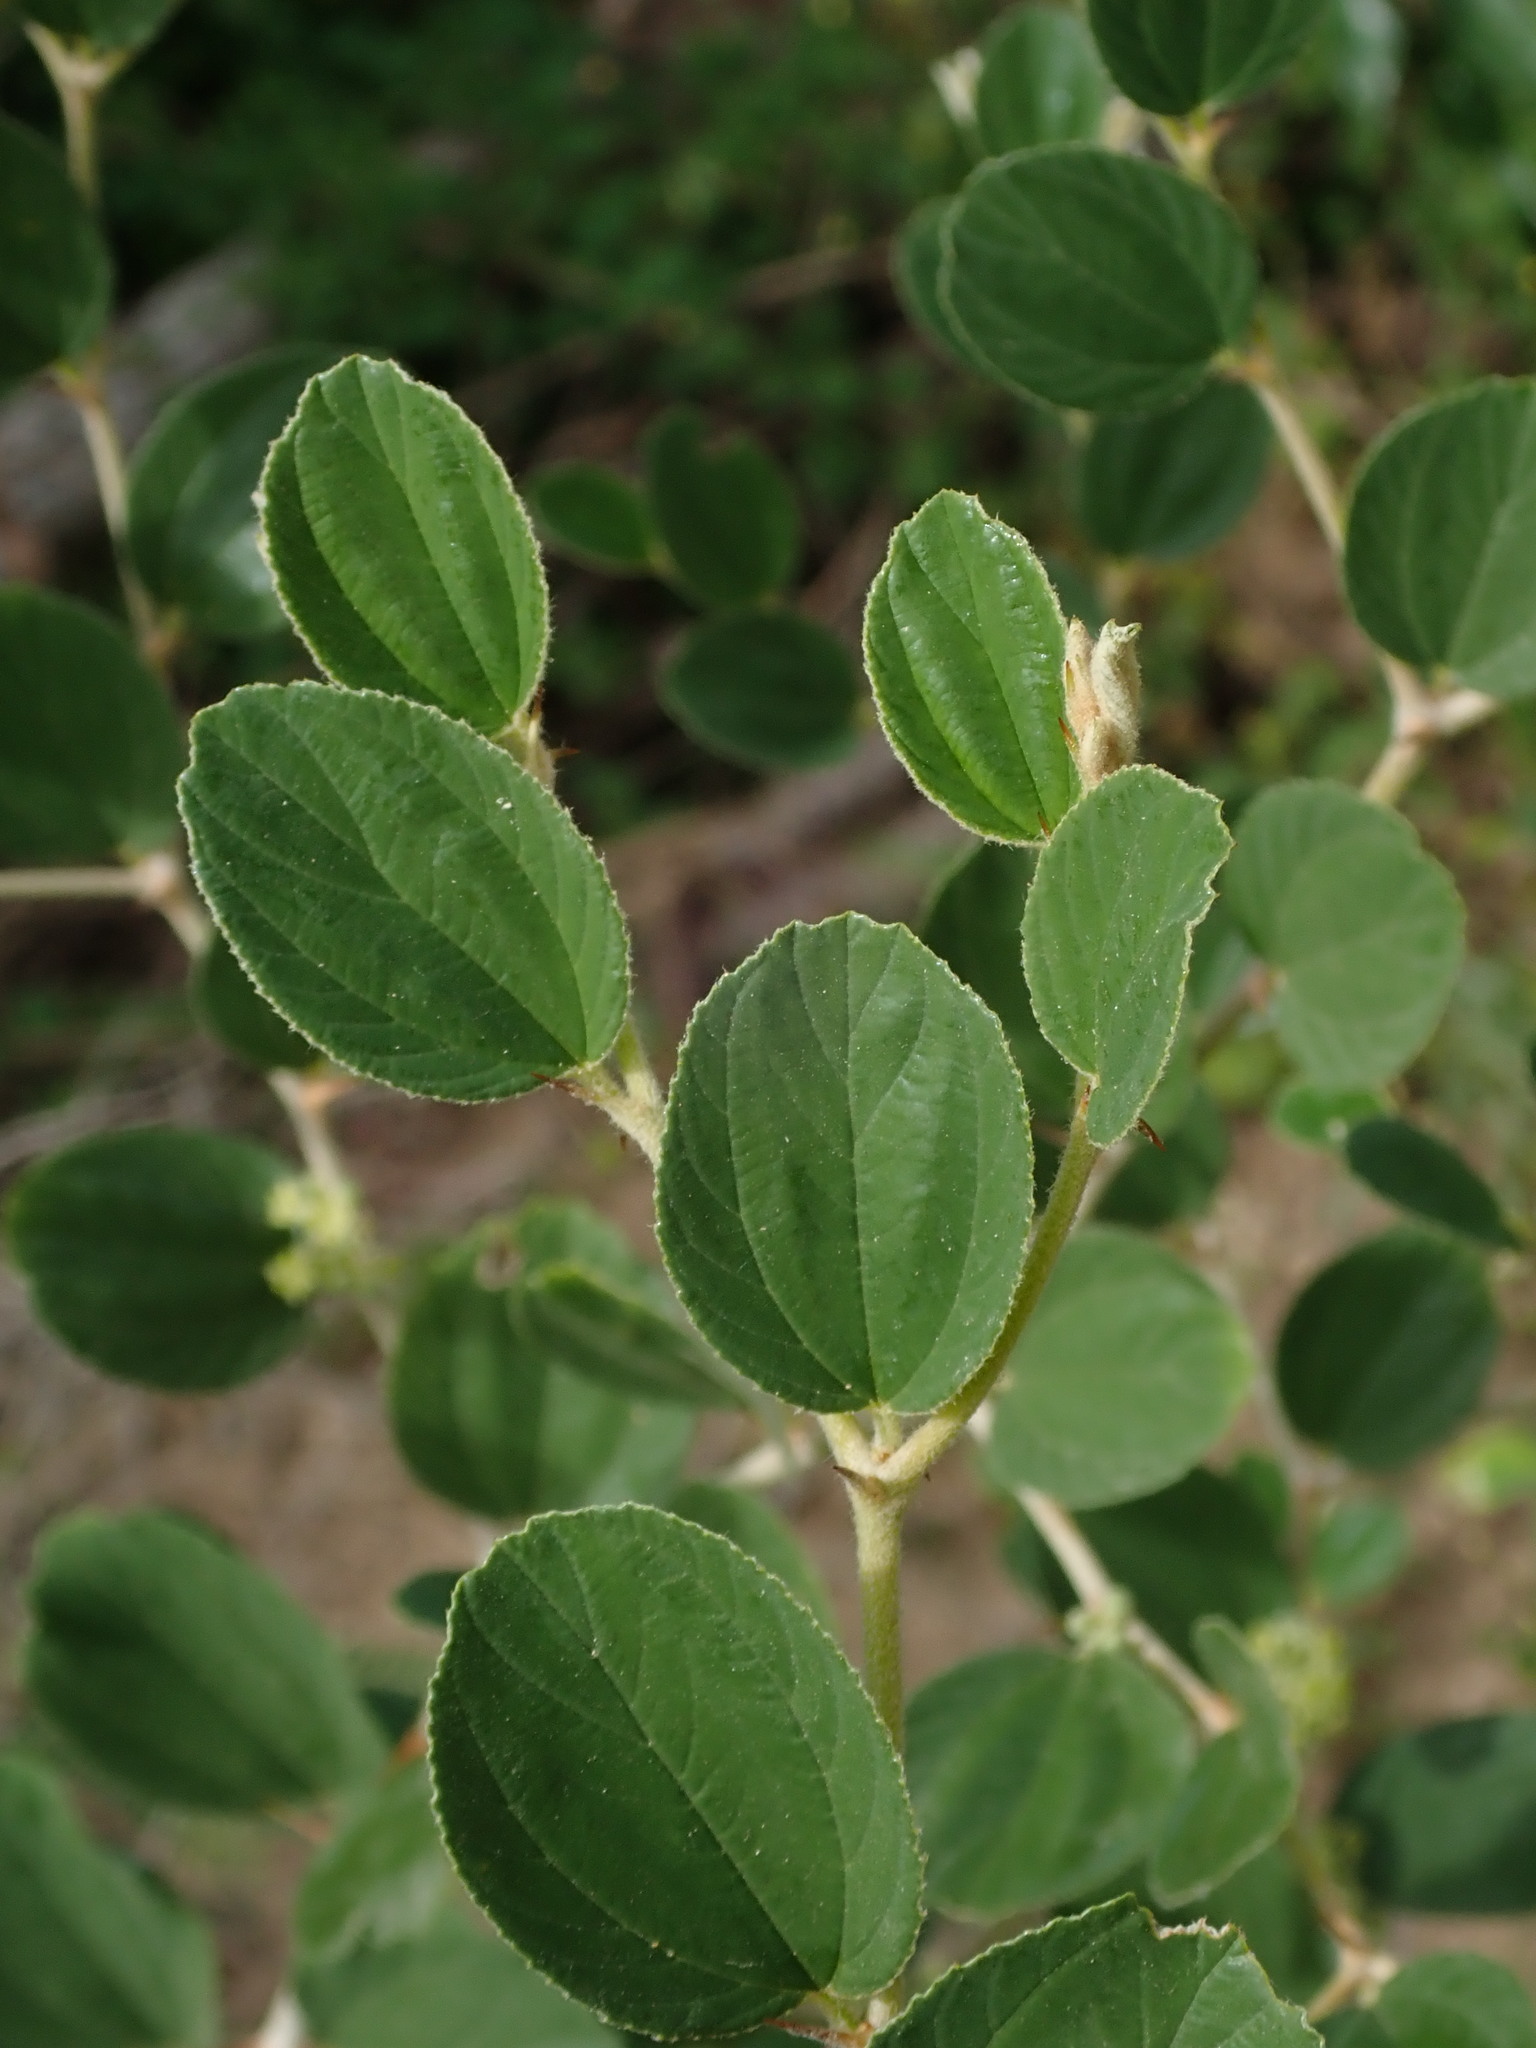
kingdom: Plantae
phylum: Tracheophyta
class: Magnoliopsida
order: Rosales
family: Rhamnaceae
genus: Ziziphus
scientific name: Ziziphus mauritiana
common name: Indian jujube
